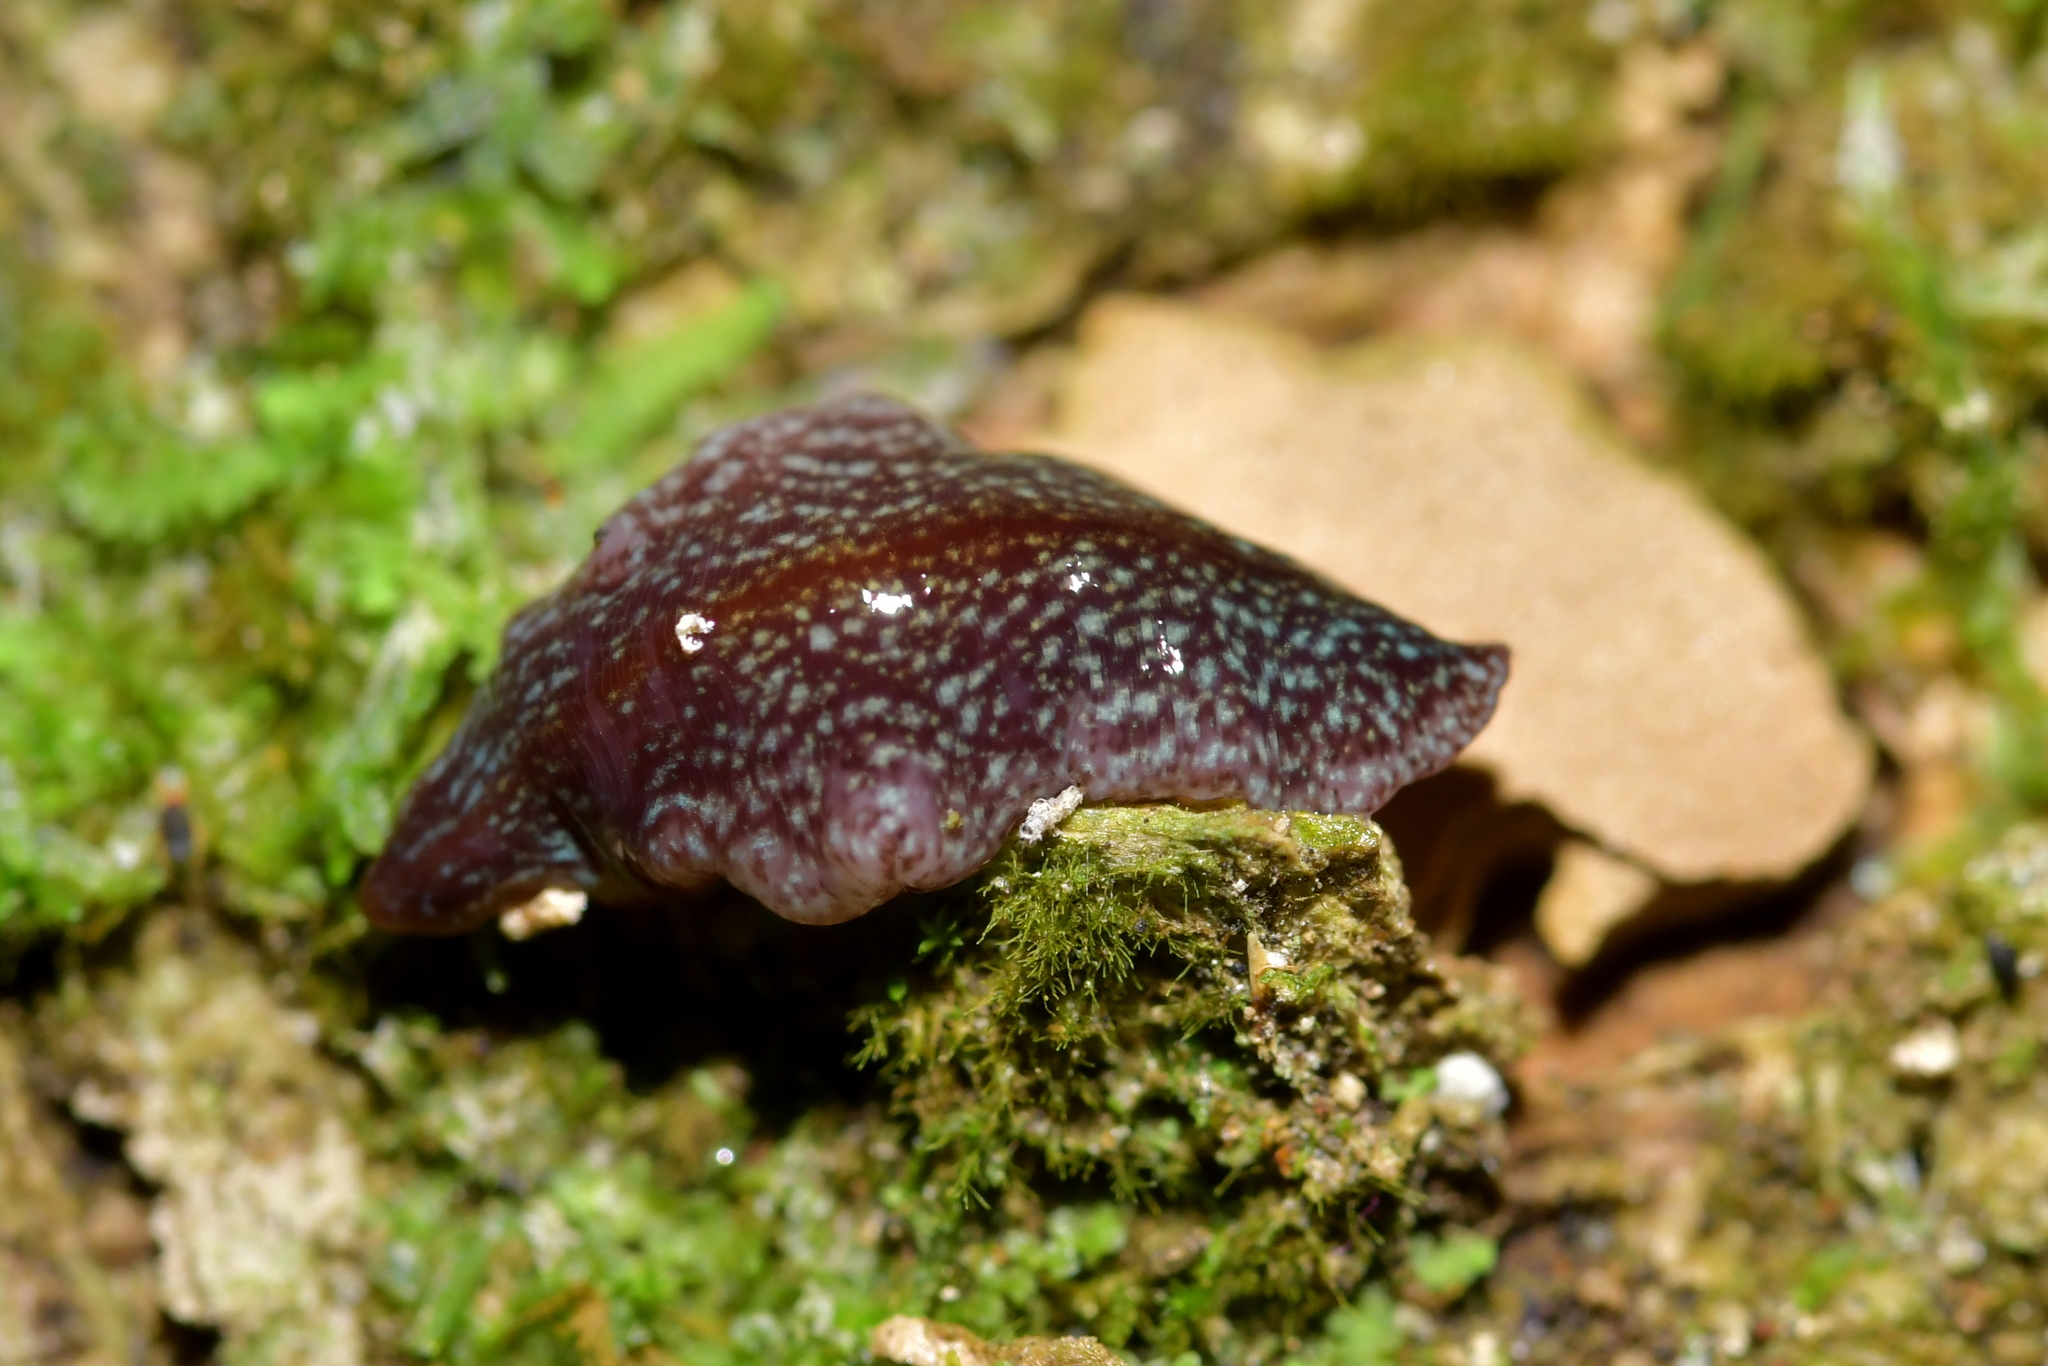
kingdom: Animalia
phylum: Platyhelminthes
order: Tricladida
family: Geoplanidae
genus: Australopacifica
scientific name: Australopacifica spectabilis
